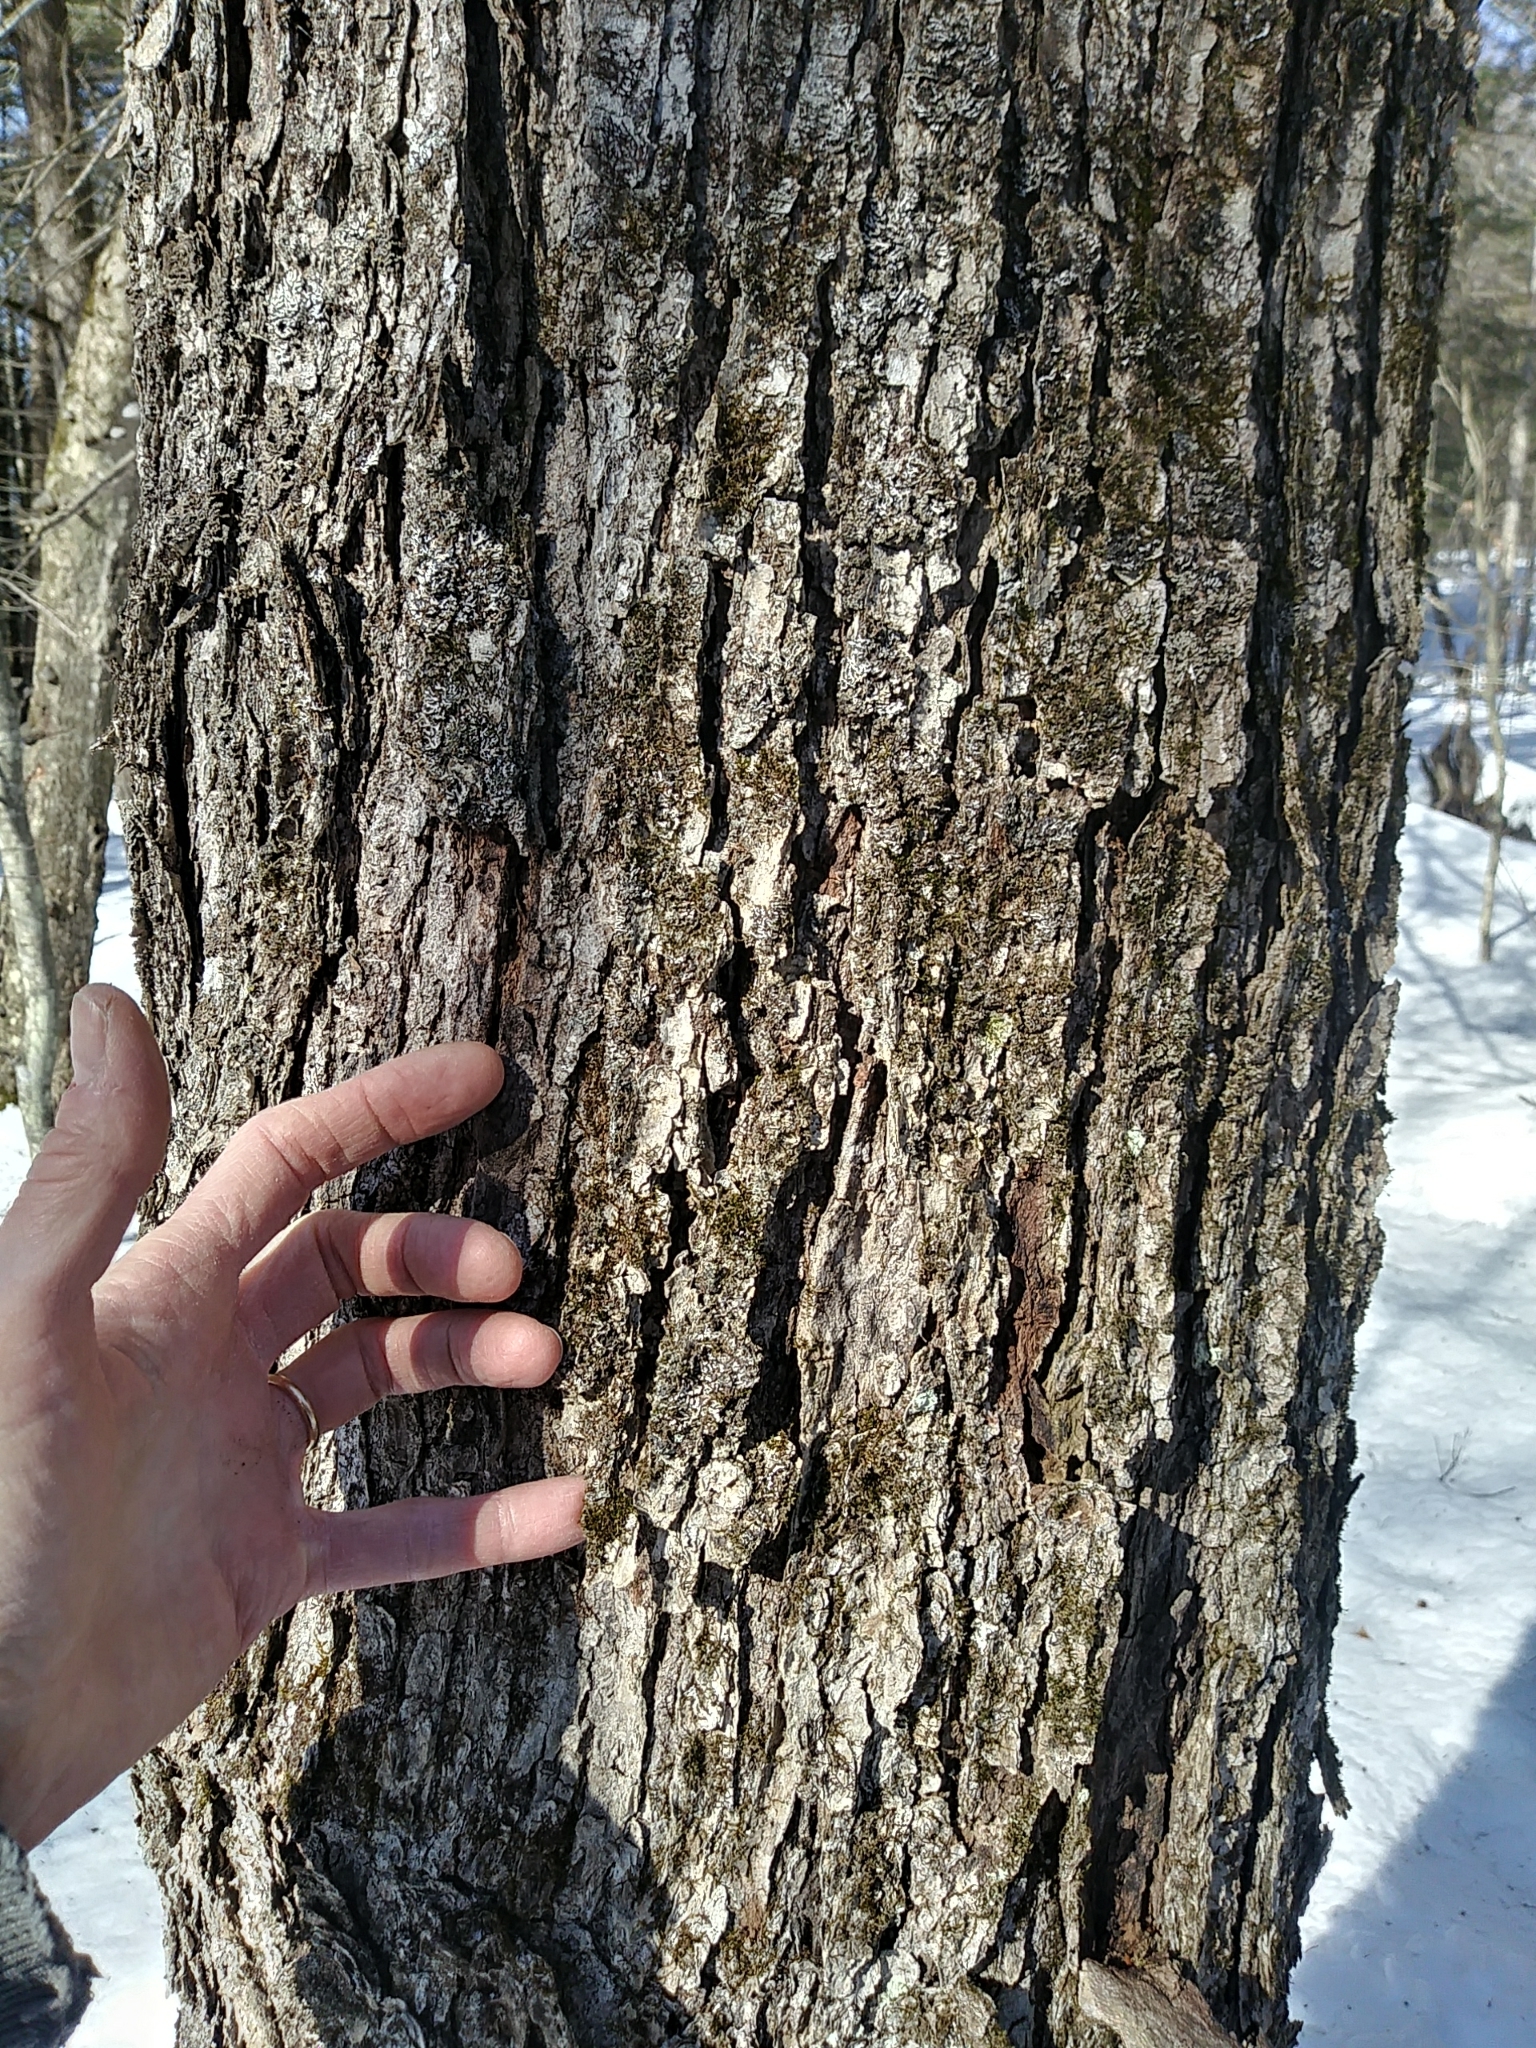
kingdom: Plantae
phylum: Tracheophyta
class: Magnoliopsida
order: Sapindales
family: Sapindaceae
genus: Acer
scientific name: Acer rubrum
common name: Red maple
